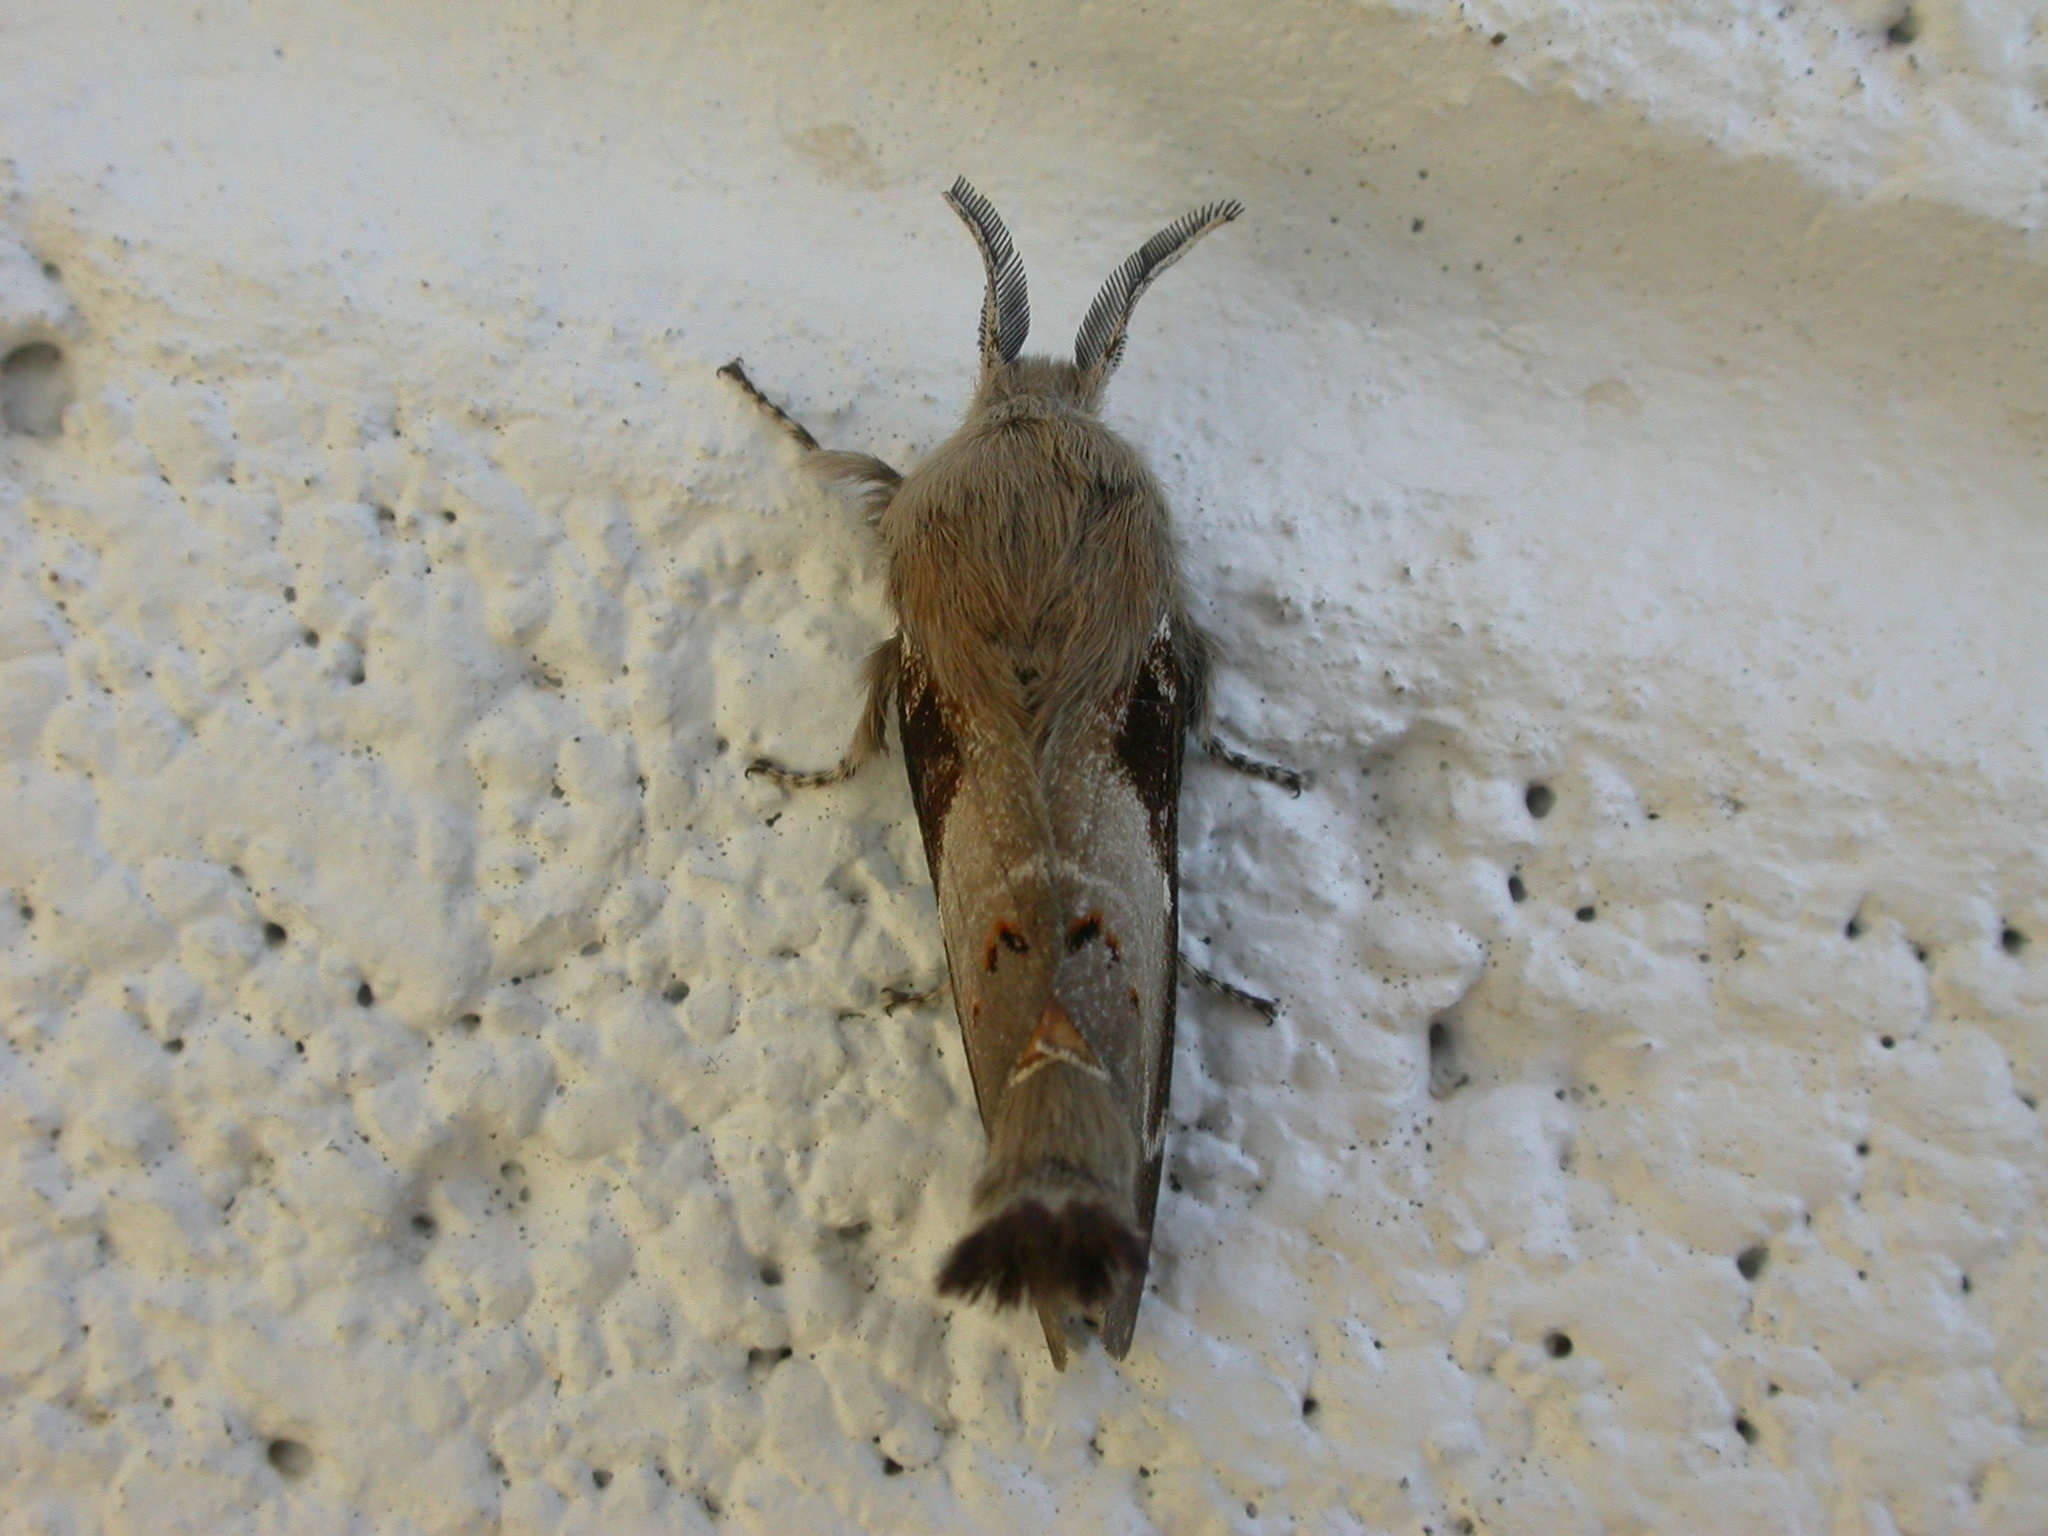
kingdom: Animalia
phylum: Arthropoda
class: Insecta
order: Lepidoptera
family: Lasiocampidae
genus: Pinara
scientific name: Pinara cana
